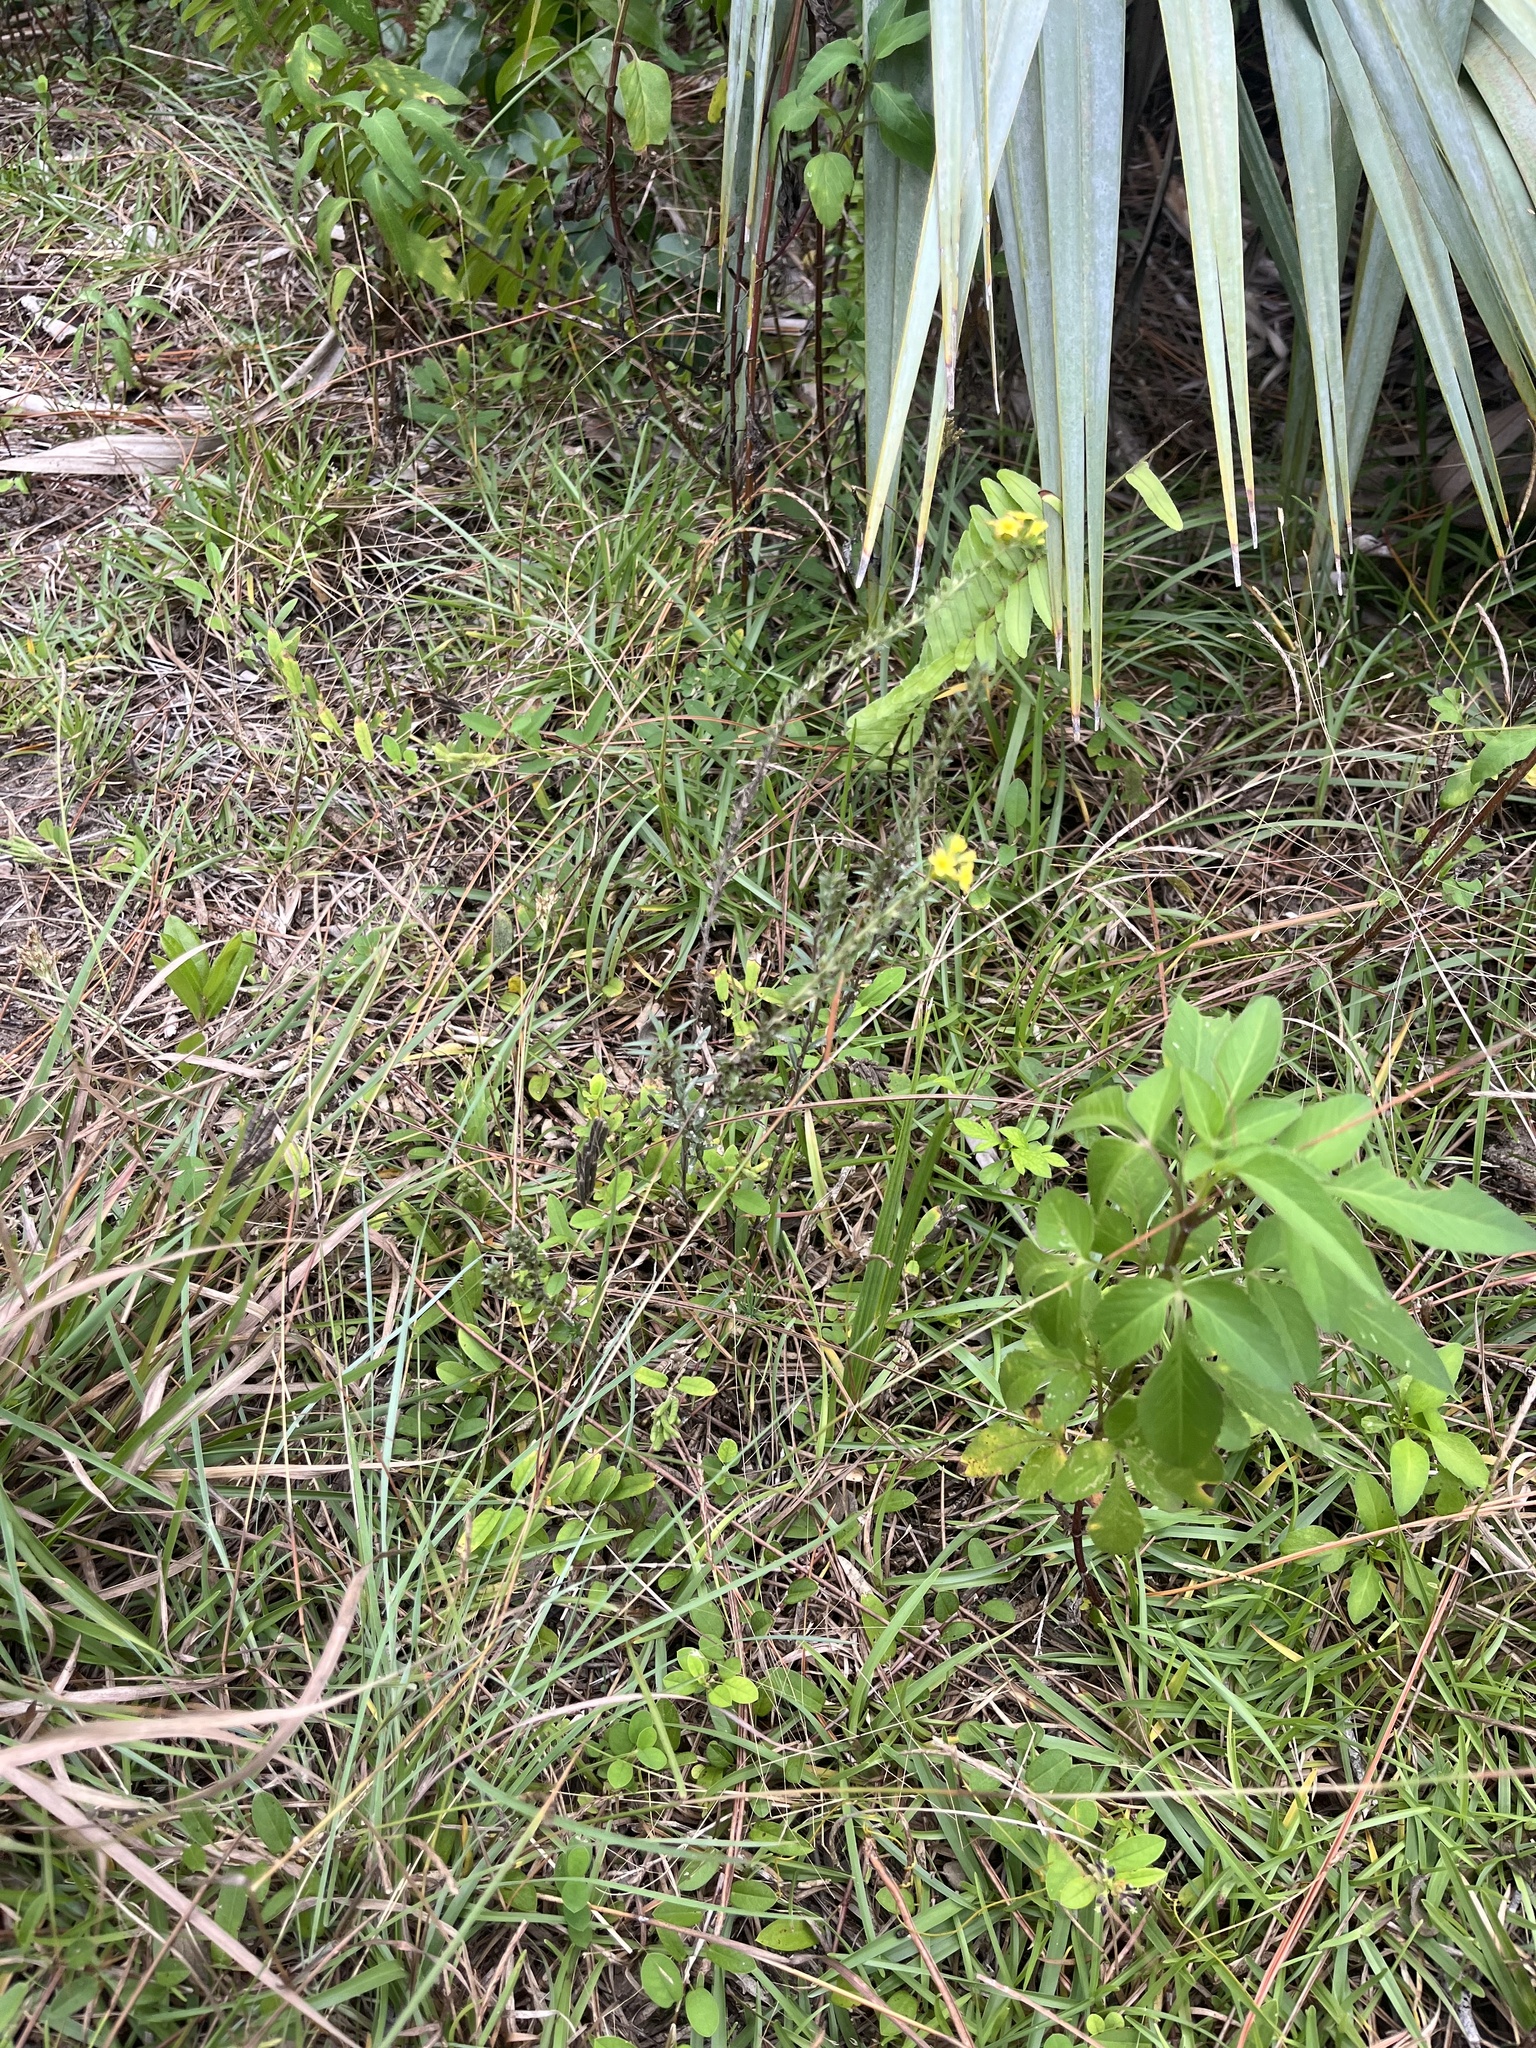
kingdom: Plantae
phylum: Tracheophyta
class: Magnoliopsida
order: Boraginales
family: Heliotropiaceae
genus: Euploca
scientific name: Euploca polyphylla
